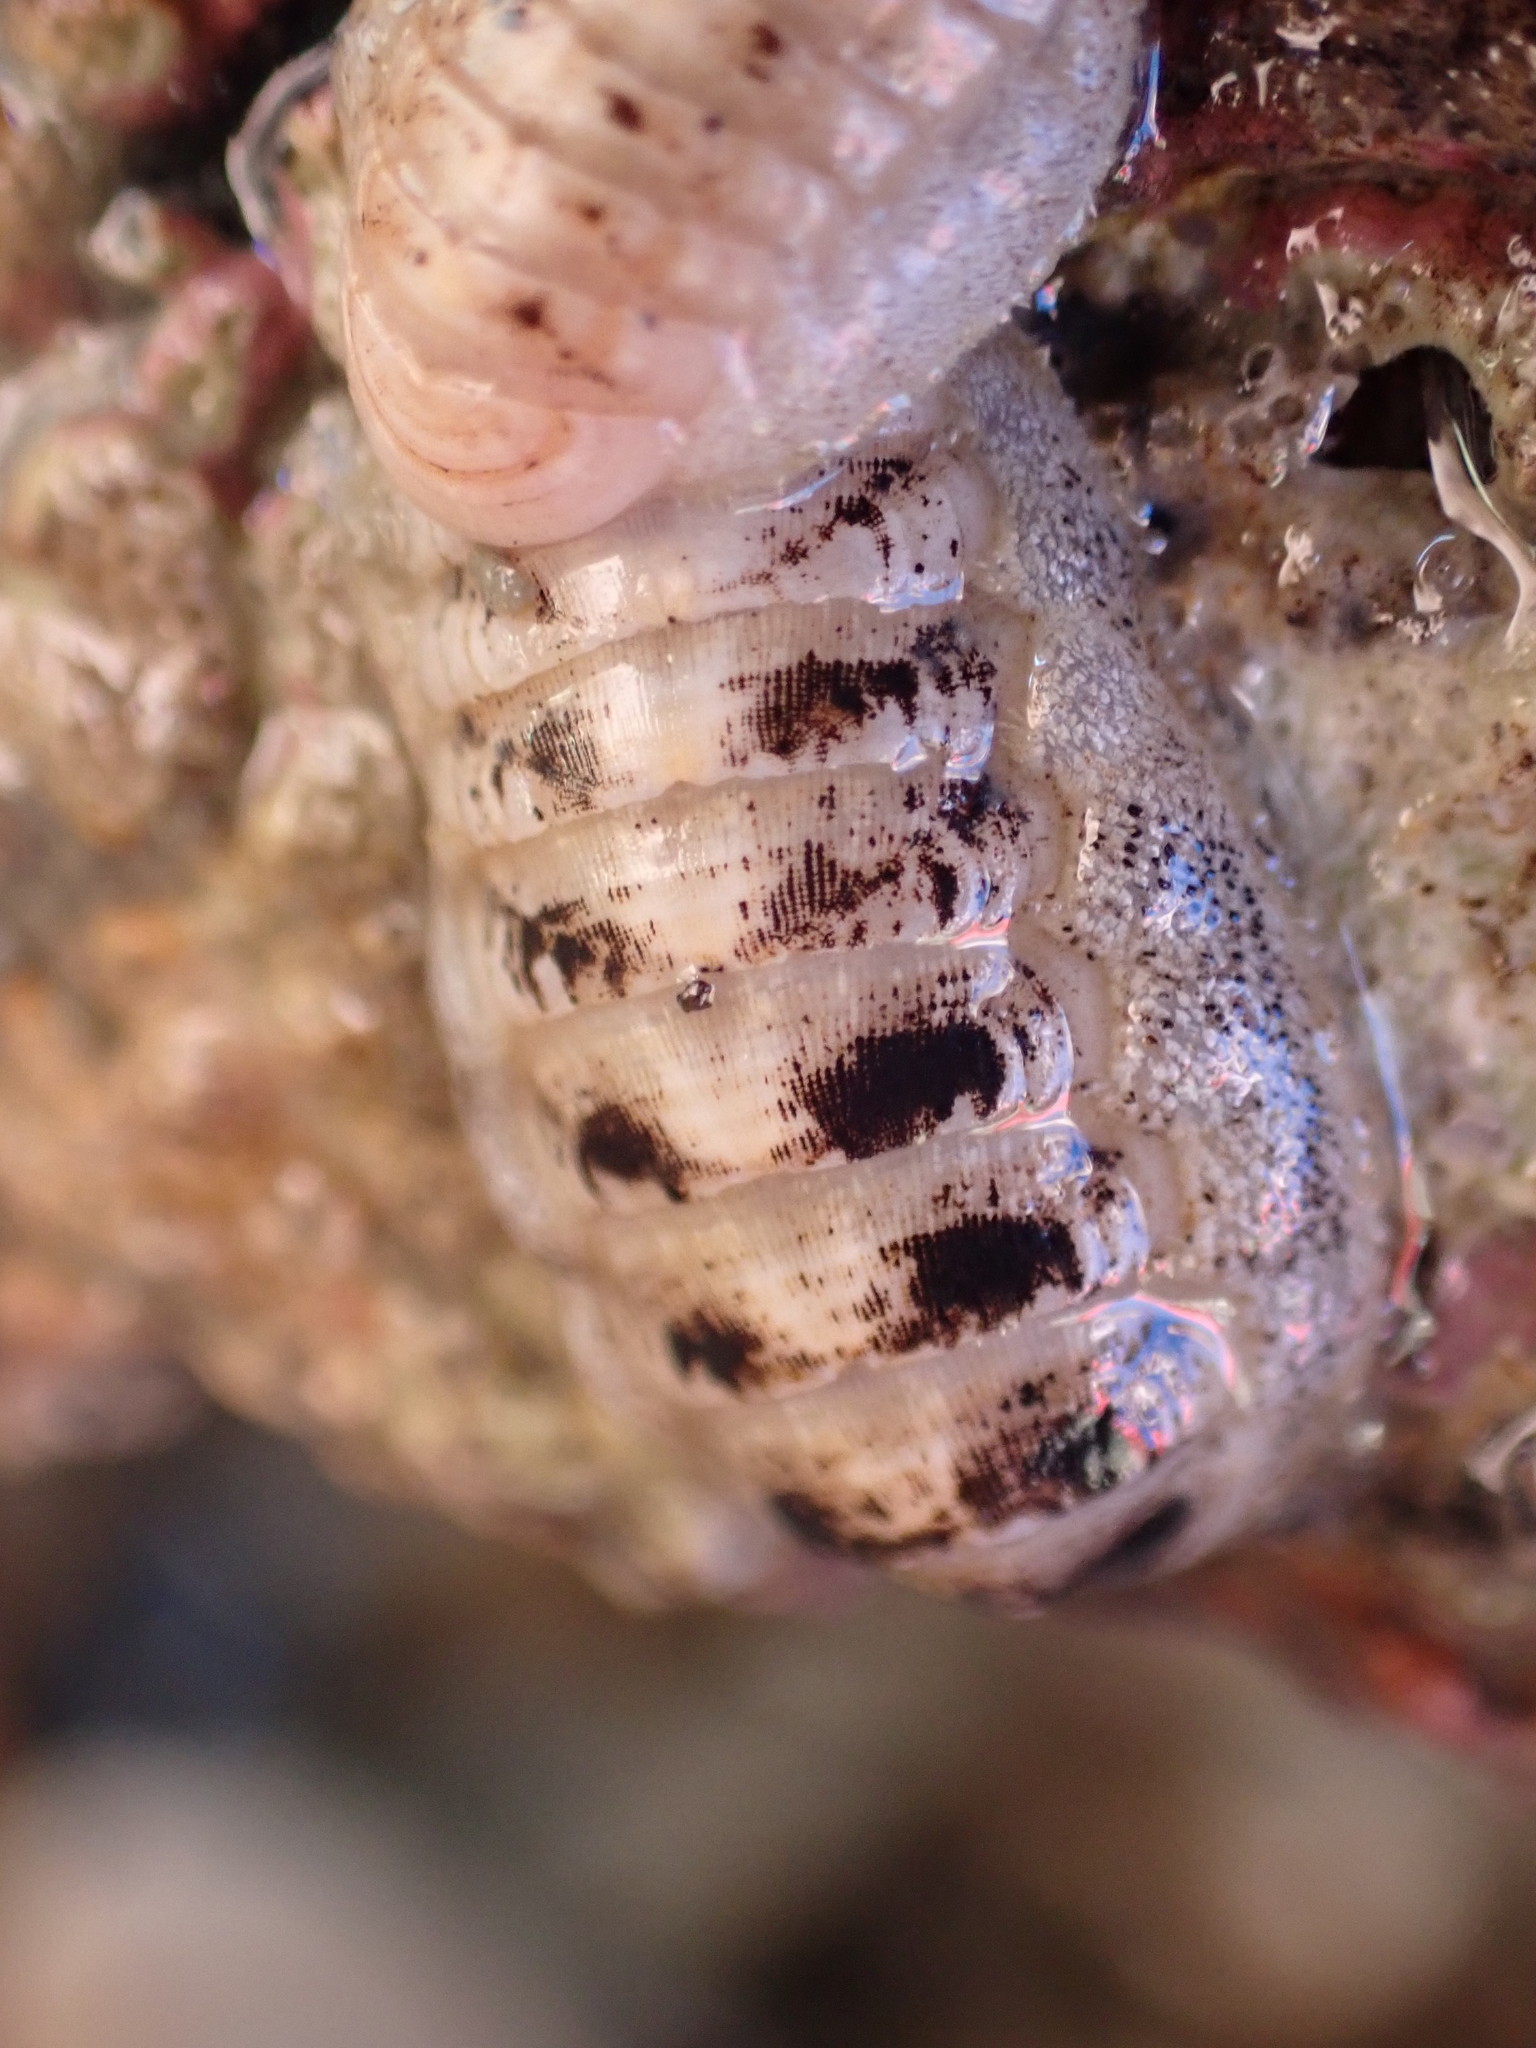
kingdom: Animalia
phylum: Mollusca
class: Polyplacophora
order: Lepidopleurida
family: Leptochitonidae
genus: Leptochiton
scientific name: Leptochiton inquinatus
